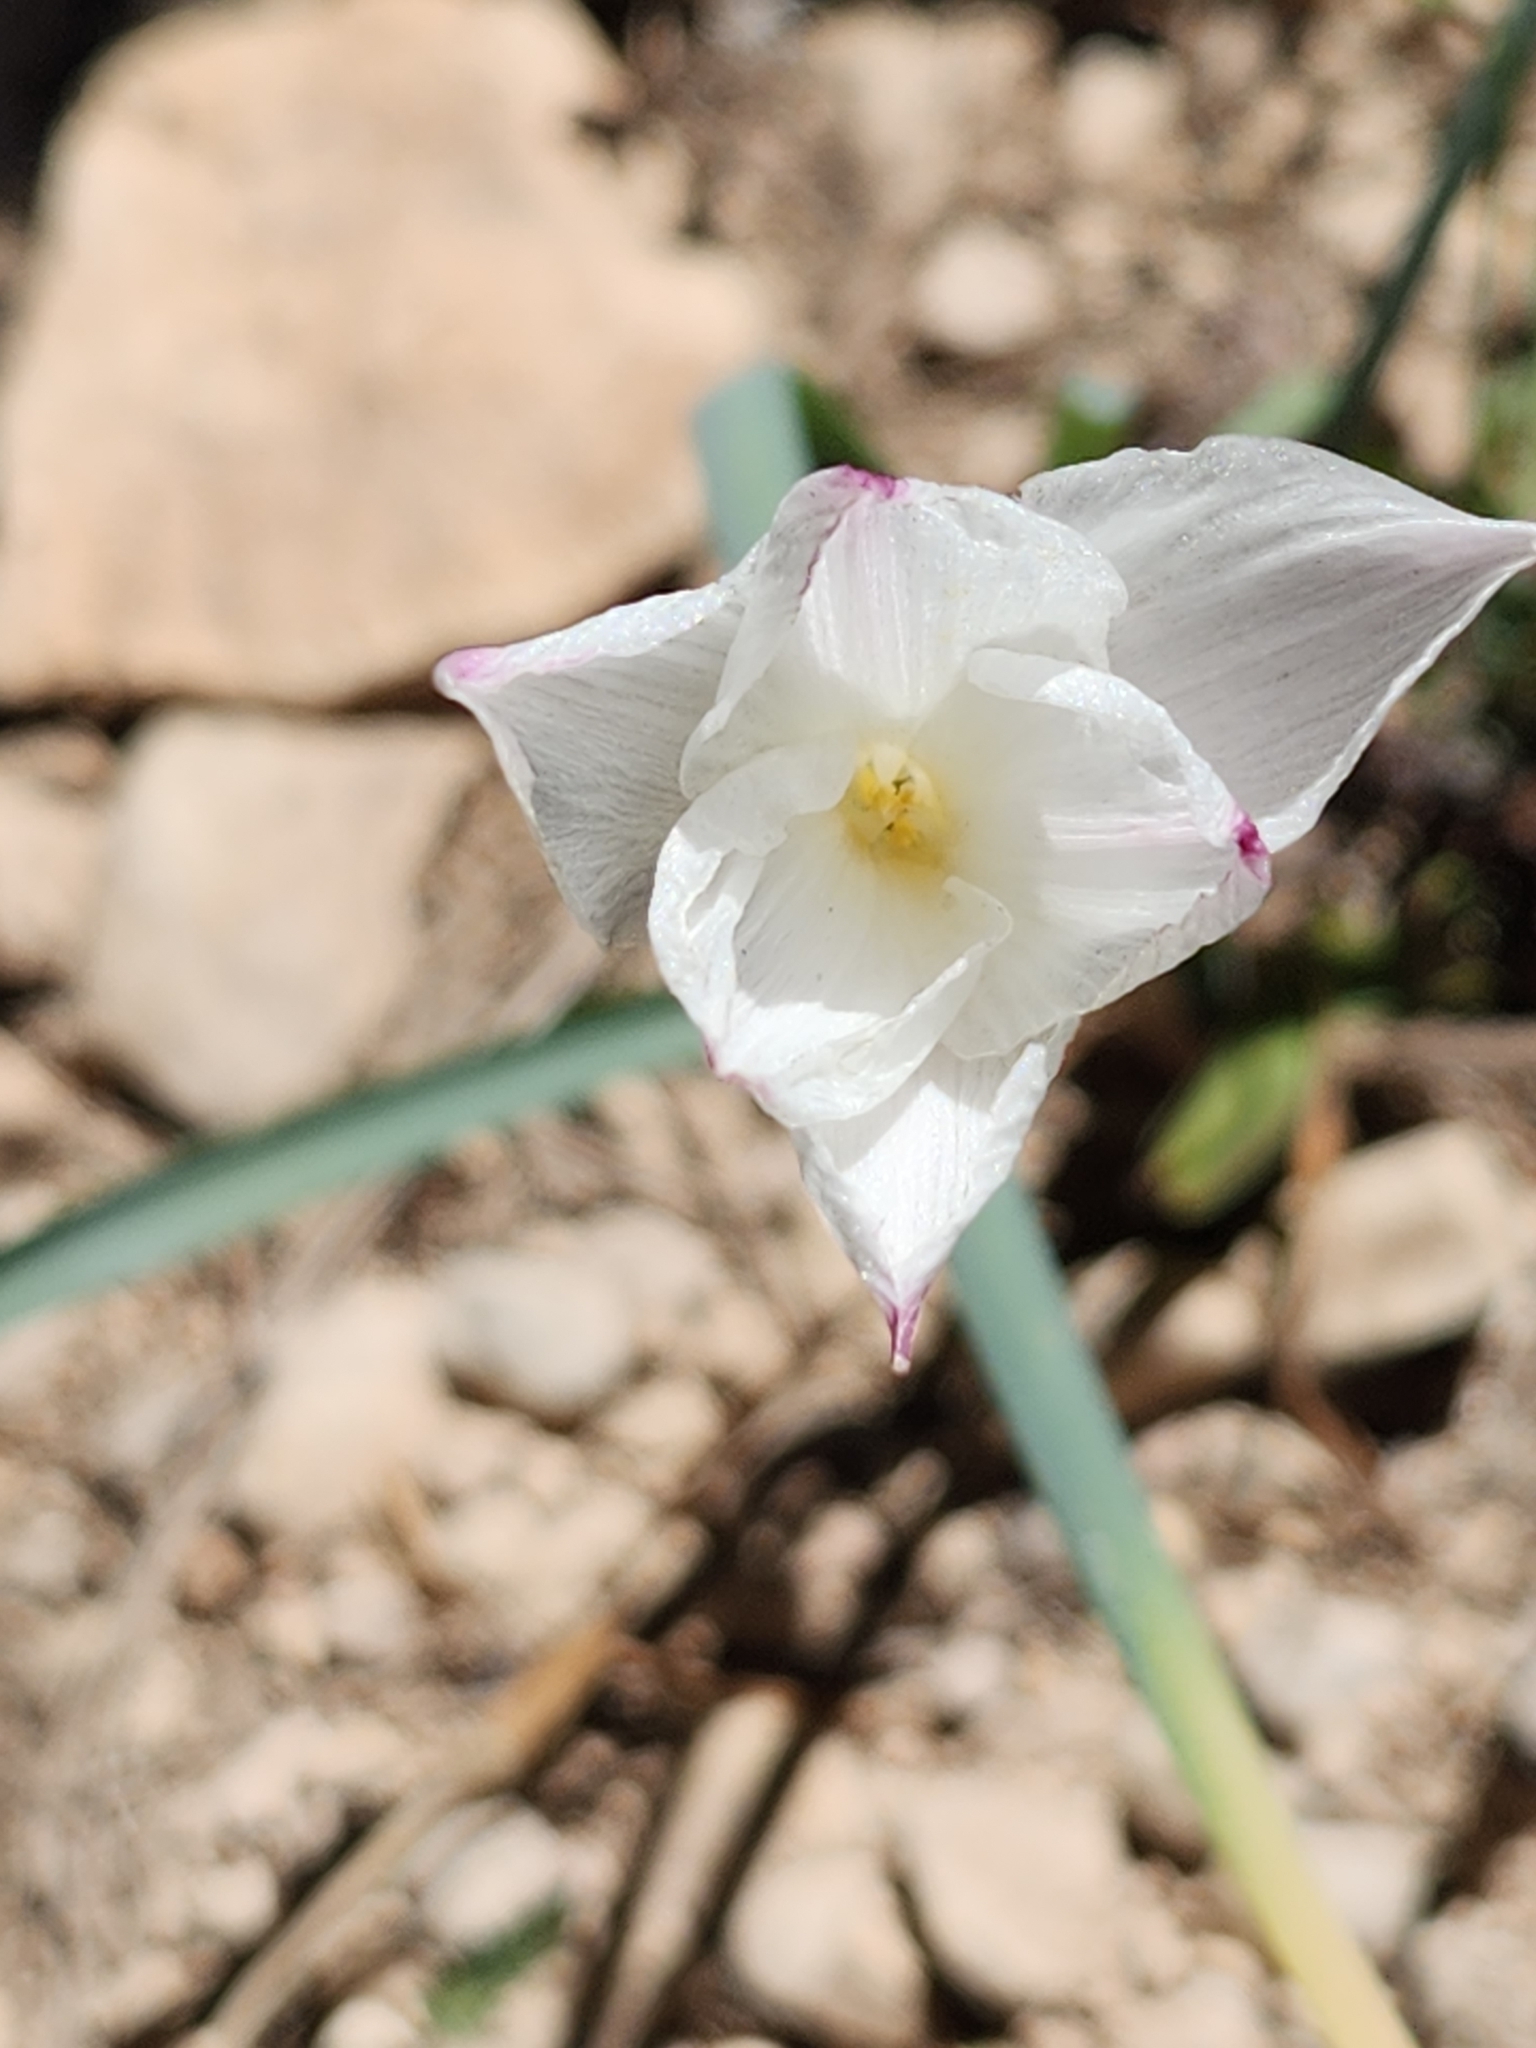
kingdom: Plantae
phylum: Tracheophyta
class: Liliopsida
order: Asparagales
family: Amaryllidaceae
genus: Zephyranthes
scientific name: Zephyranthes drummondii
